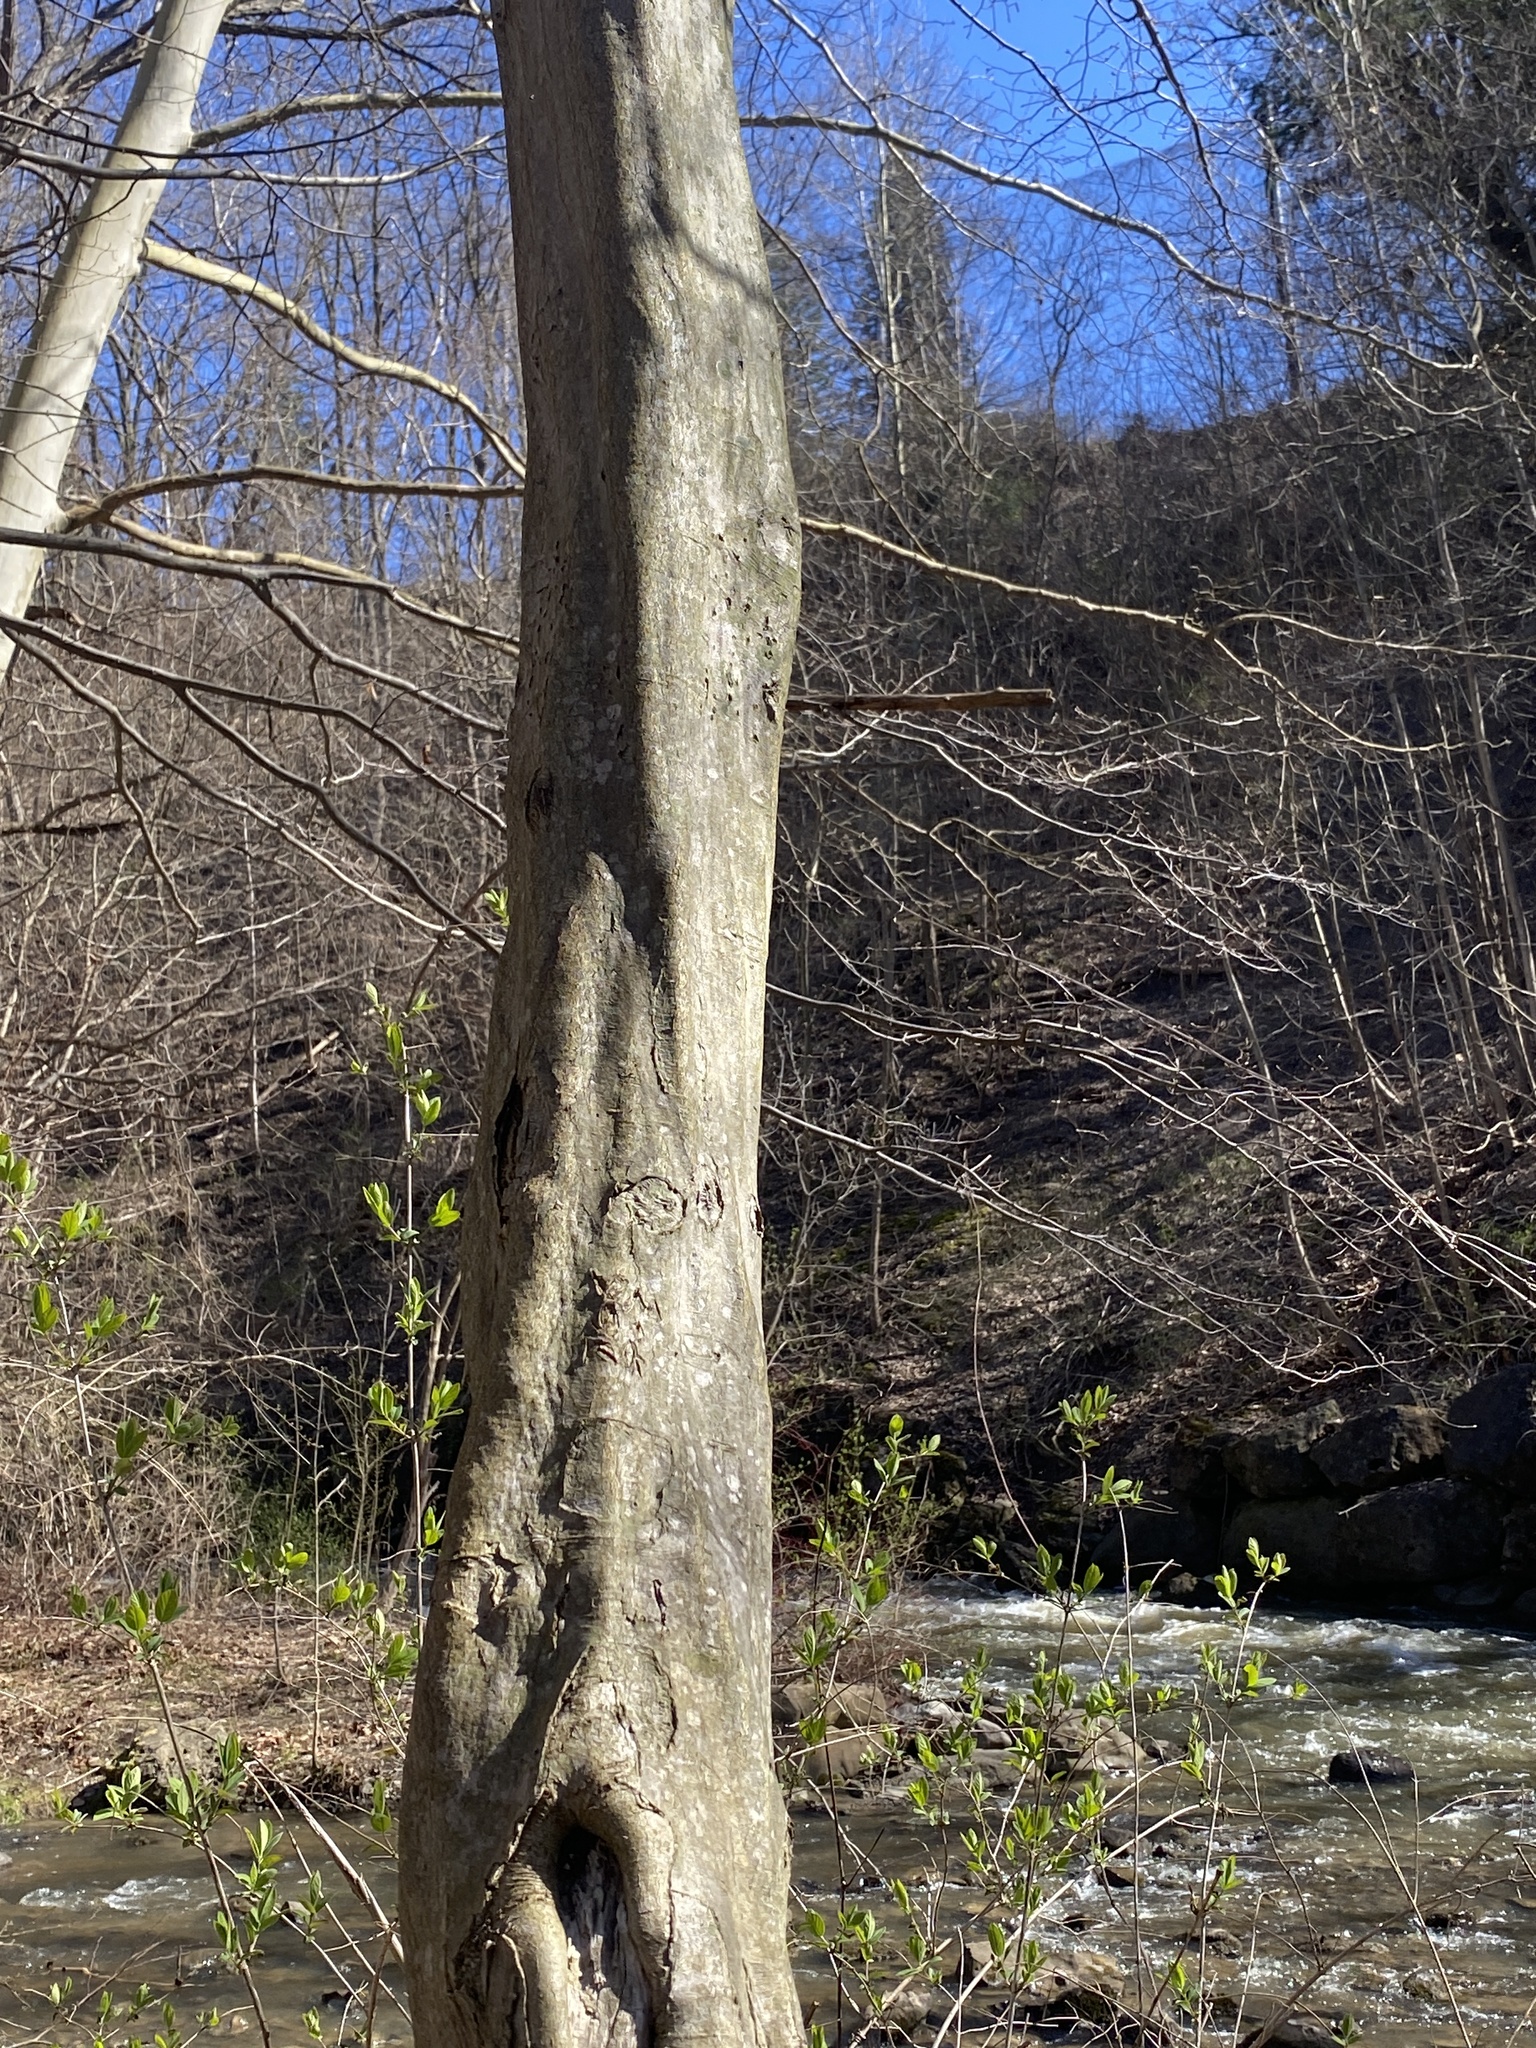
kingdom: Plantae
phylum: Tracheophyta
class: Magnoliopsida
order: Fagales
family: Betulaceae
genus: Carpinus
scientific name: Carpinus caroliniana
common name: American hornbeam
